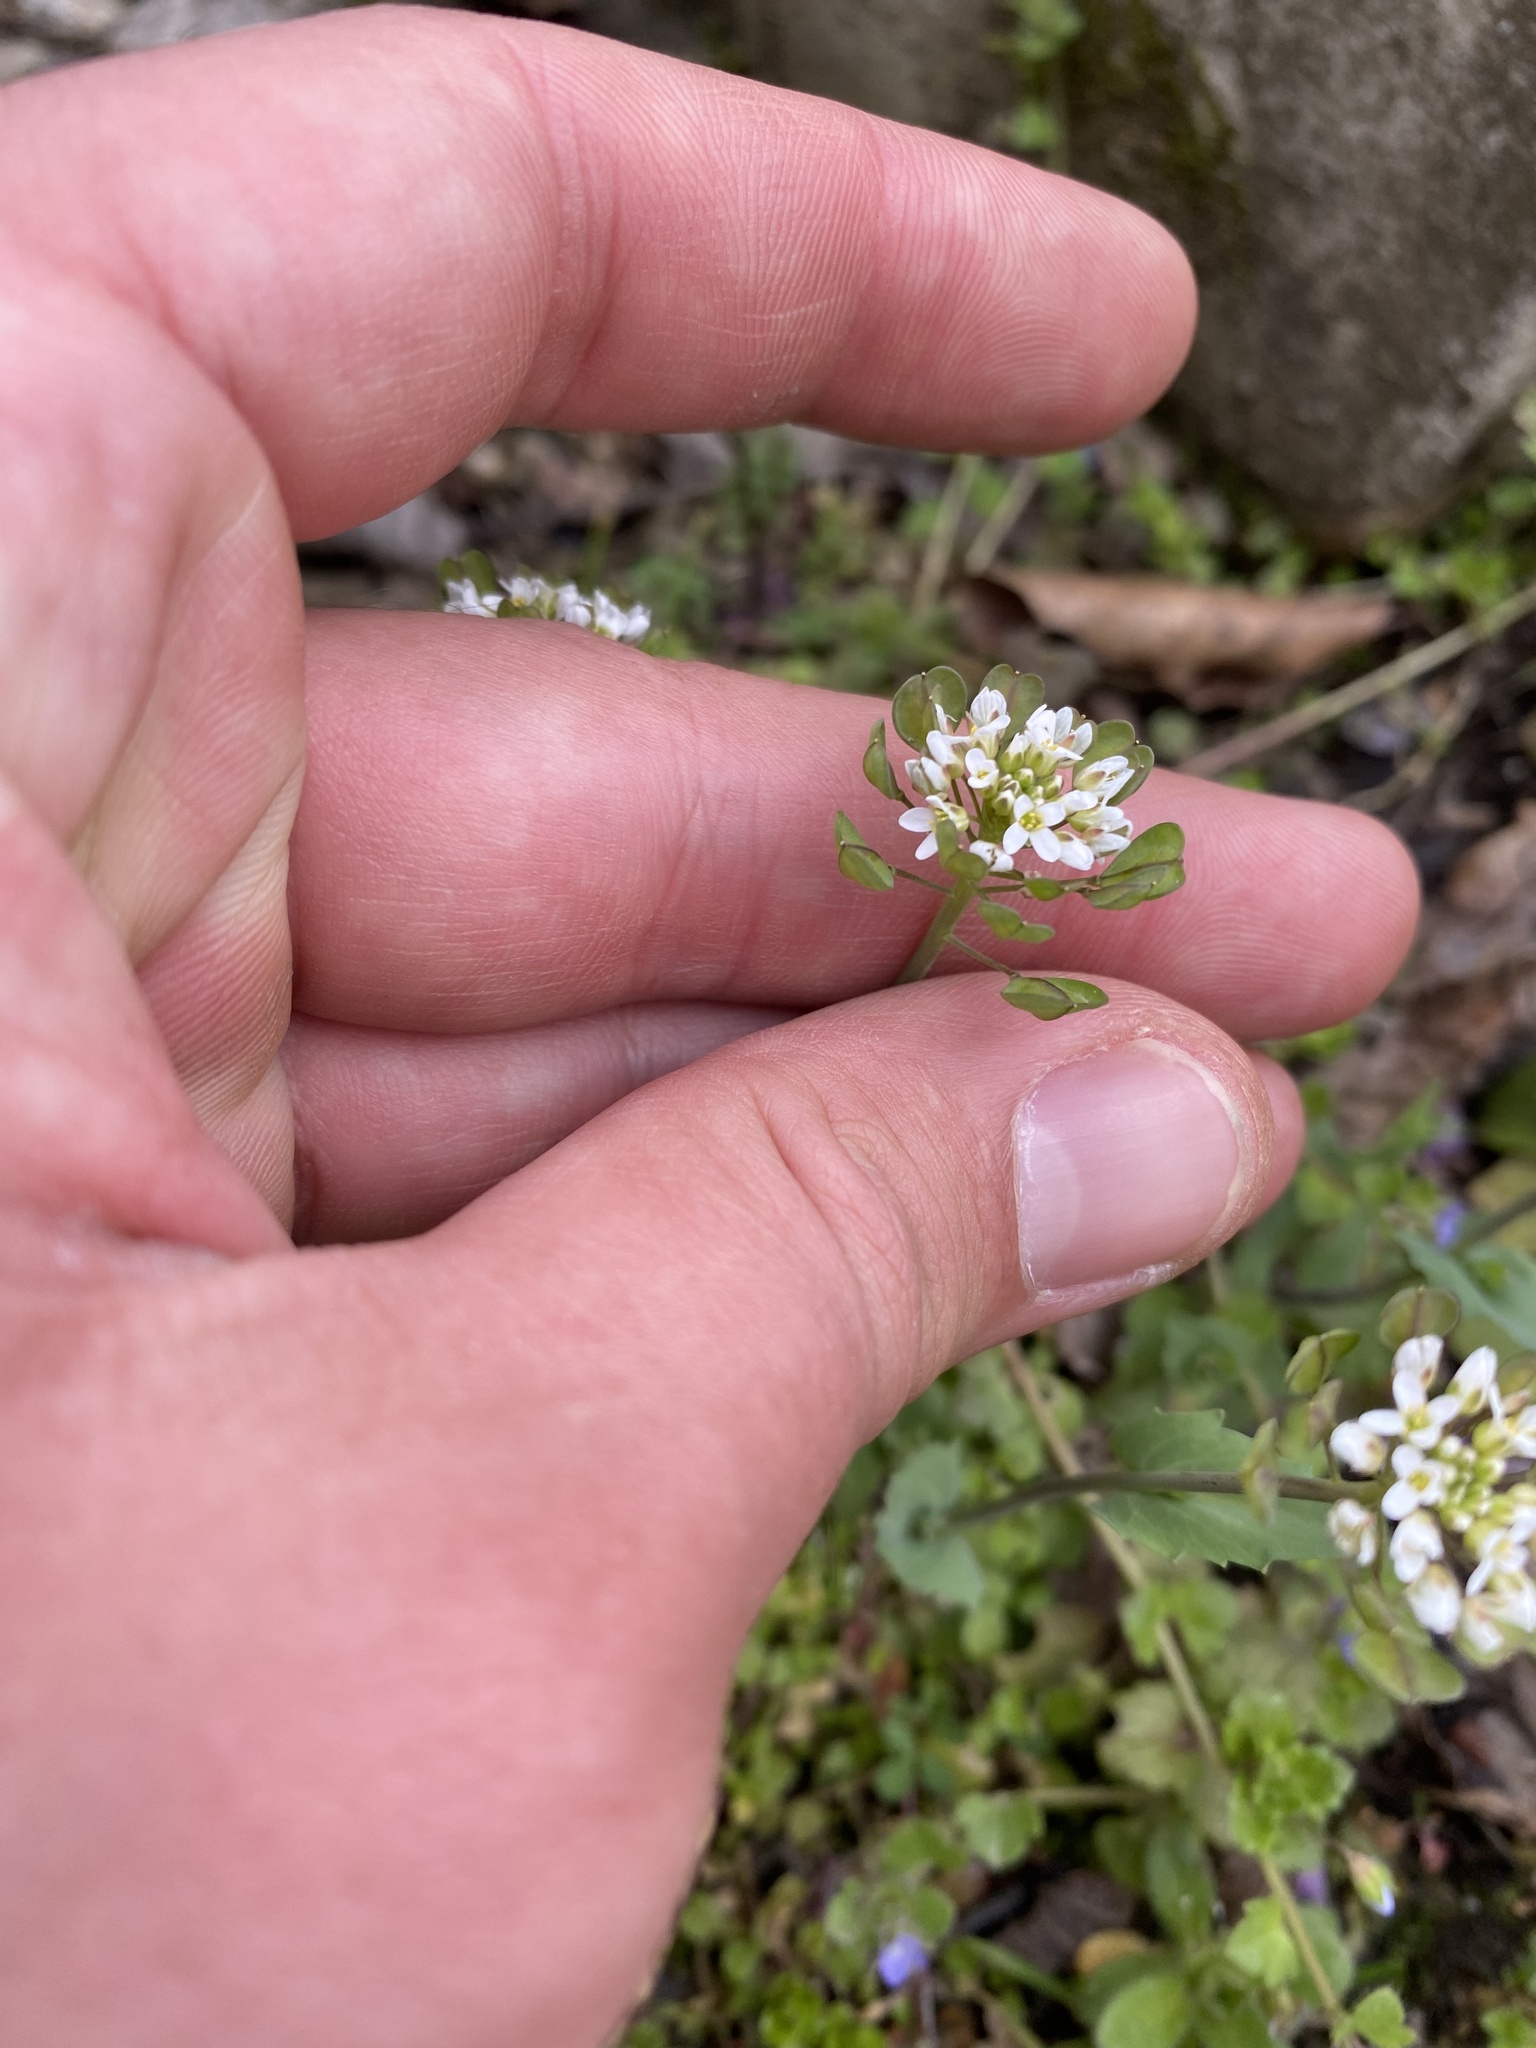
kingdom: Plantae
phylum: Tracheophyta
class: Magnoliopsida
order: Brassicales
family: Brassicaceae
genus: Noccaea
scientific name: Noccaea perfoliata
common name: Perfoliate pennycress
